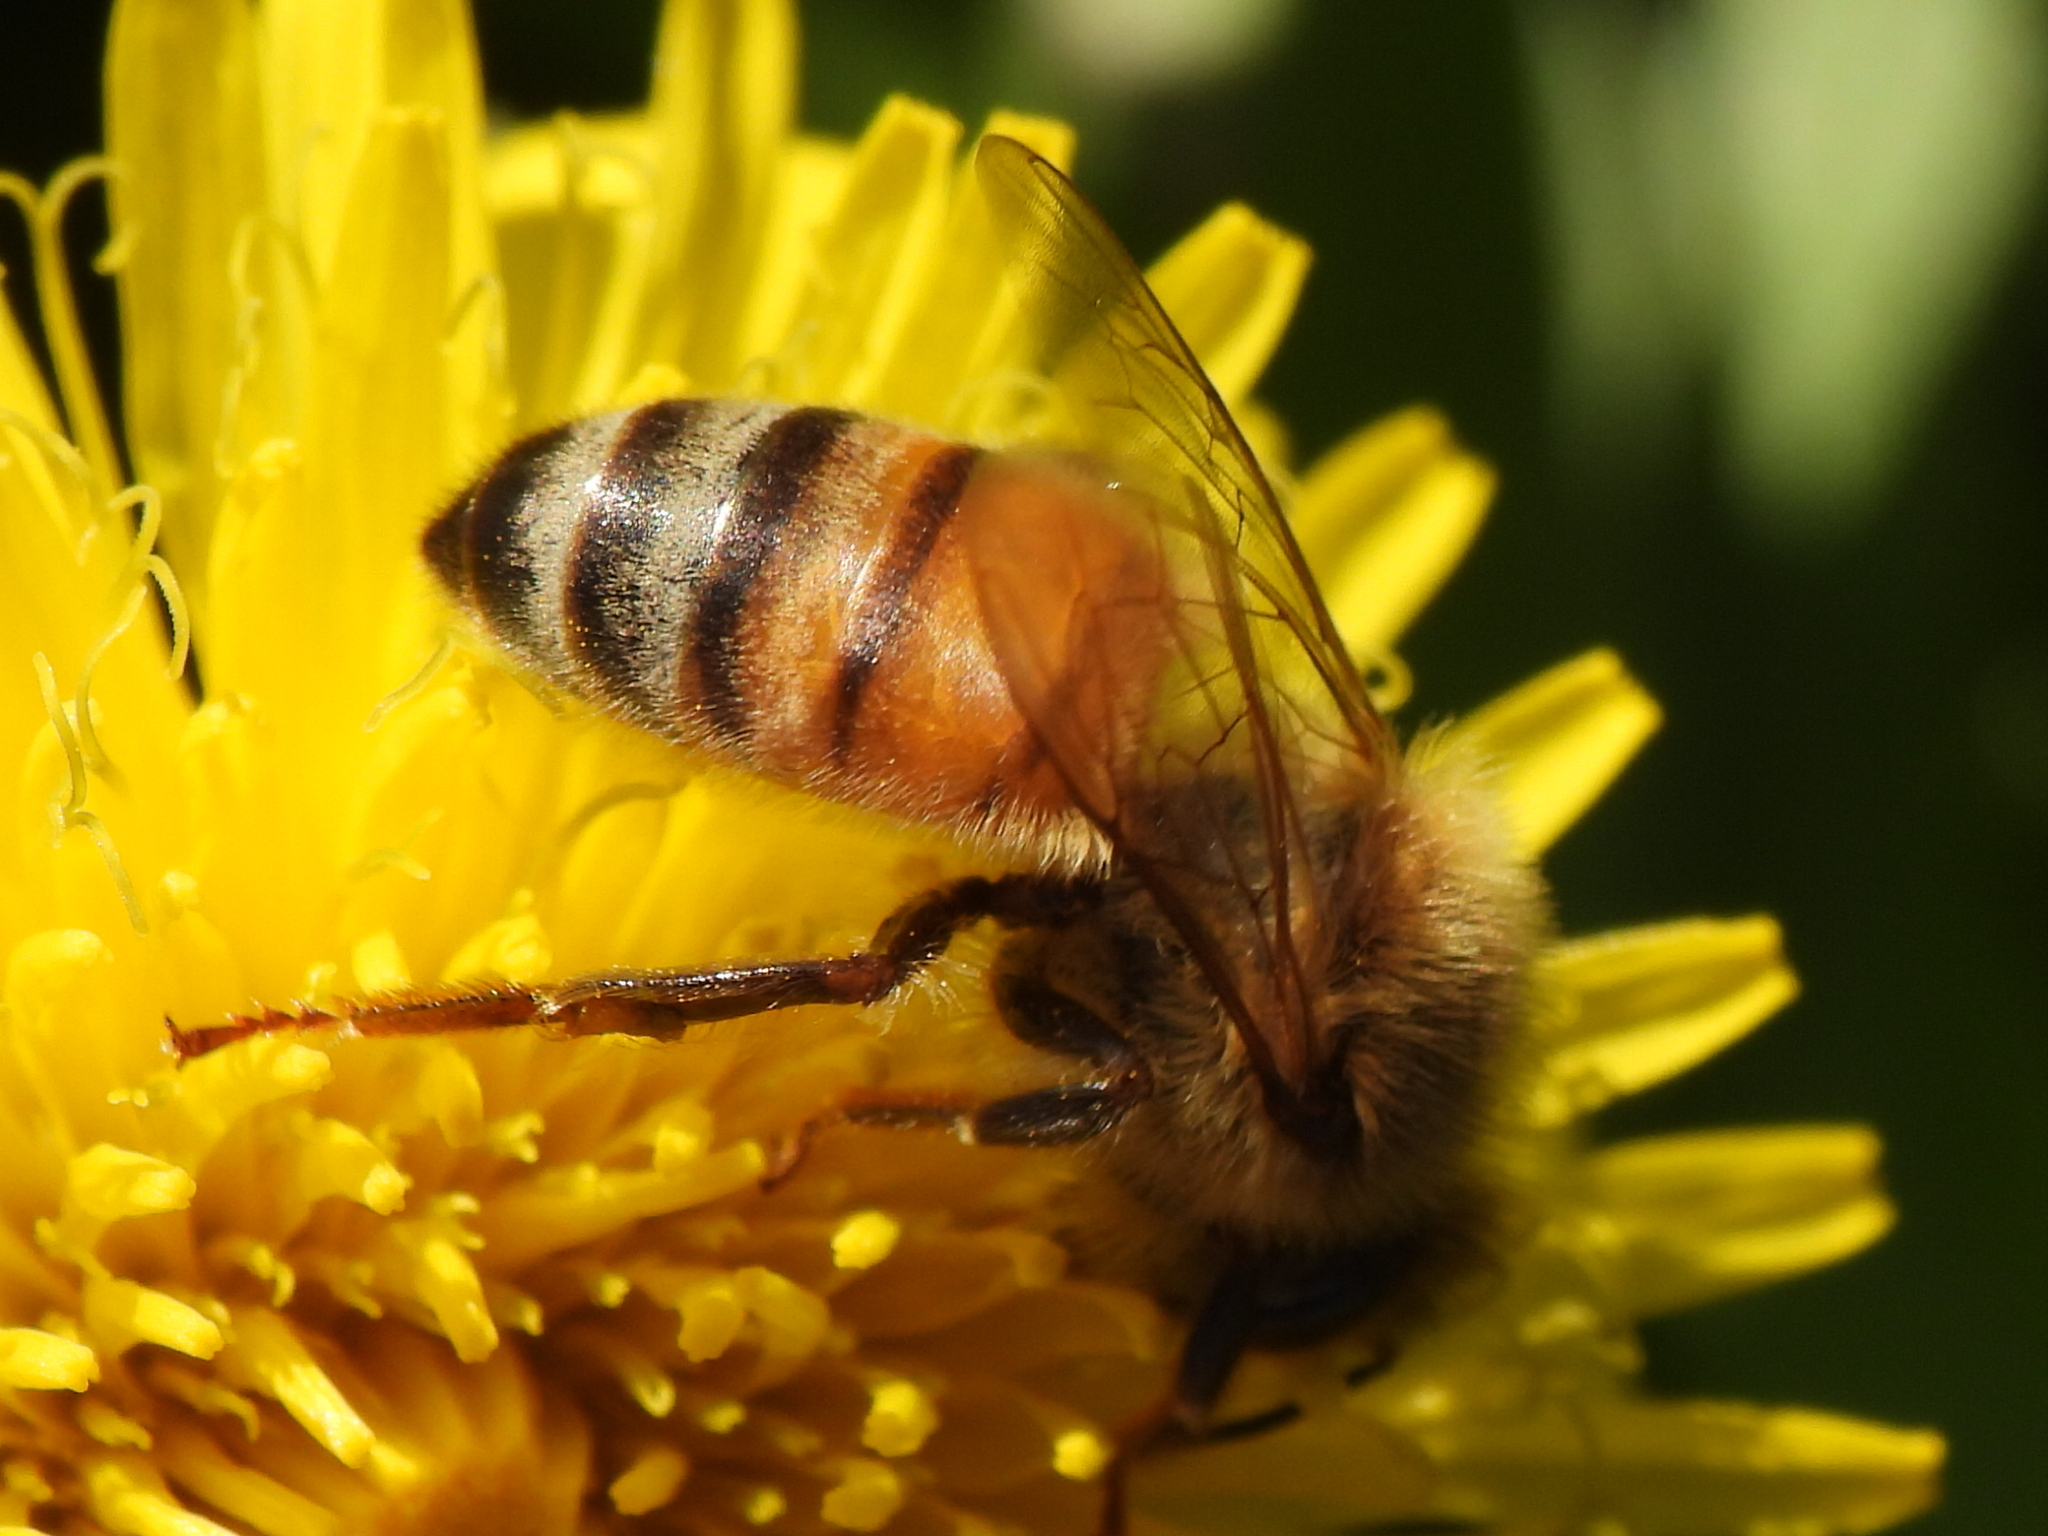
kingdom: Animalia
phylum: Arthropoda
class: Insecta
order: Hymenoptera
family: Apidae
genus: Apis
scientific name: Apis mellifera
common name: Honey bee
